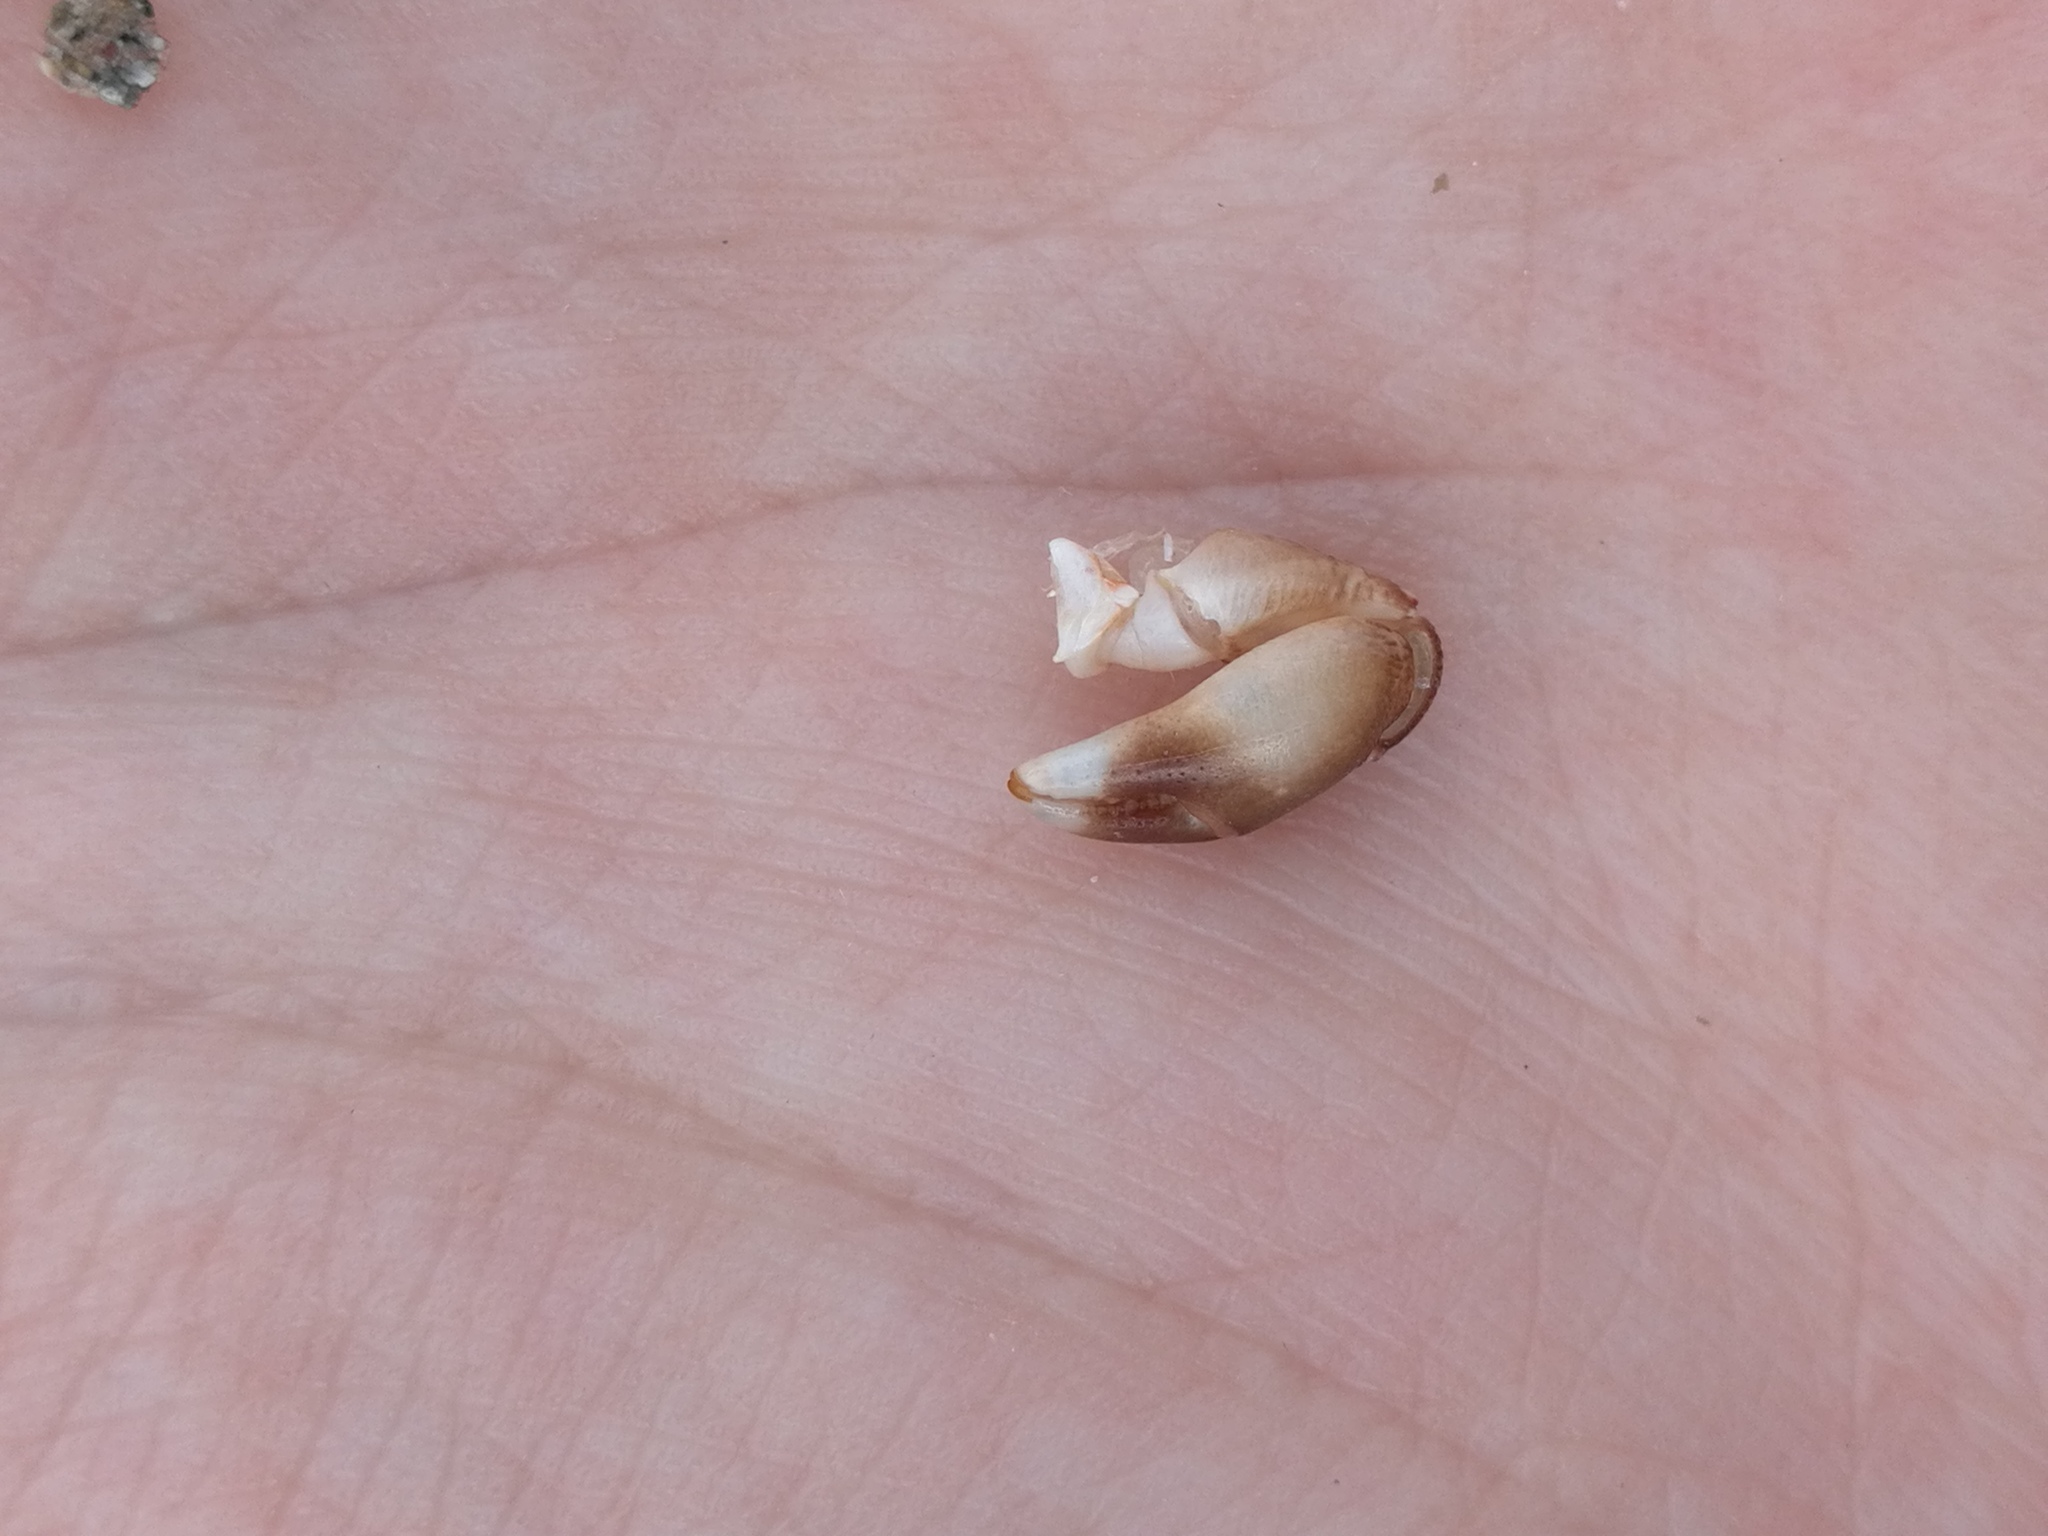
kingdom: Animalia
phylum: Arthropoda
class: Malacostraca
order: Decapoda
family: Grapsidae
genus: Pachygrapsus
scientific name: Pachygrapsus marmoratus
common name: Marbled rock crab
